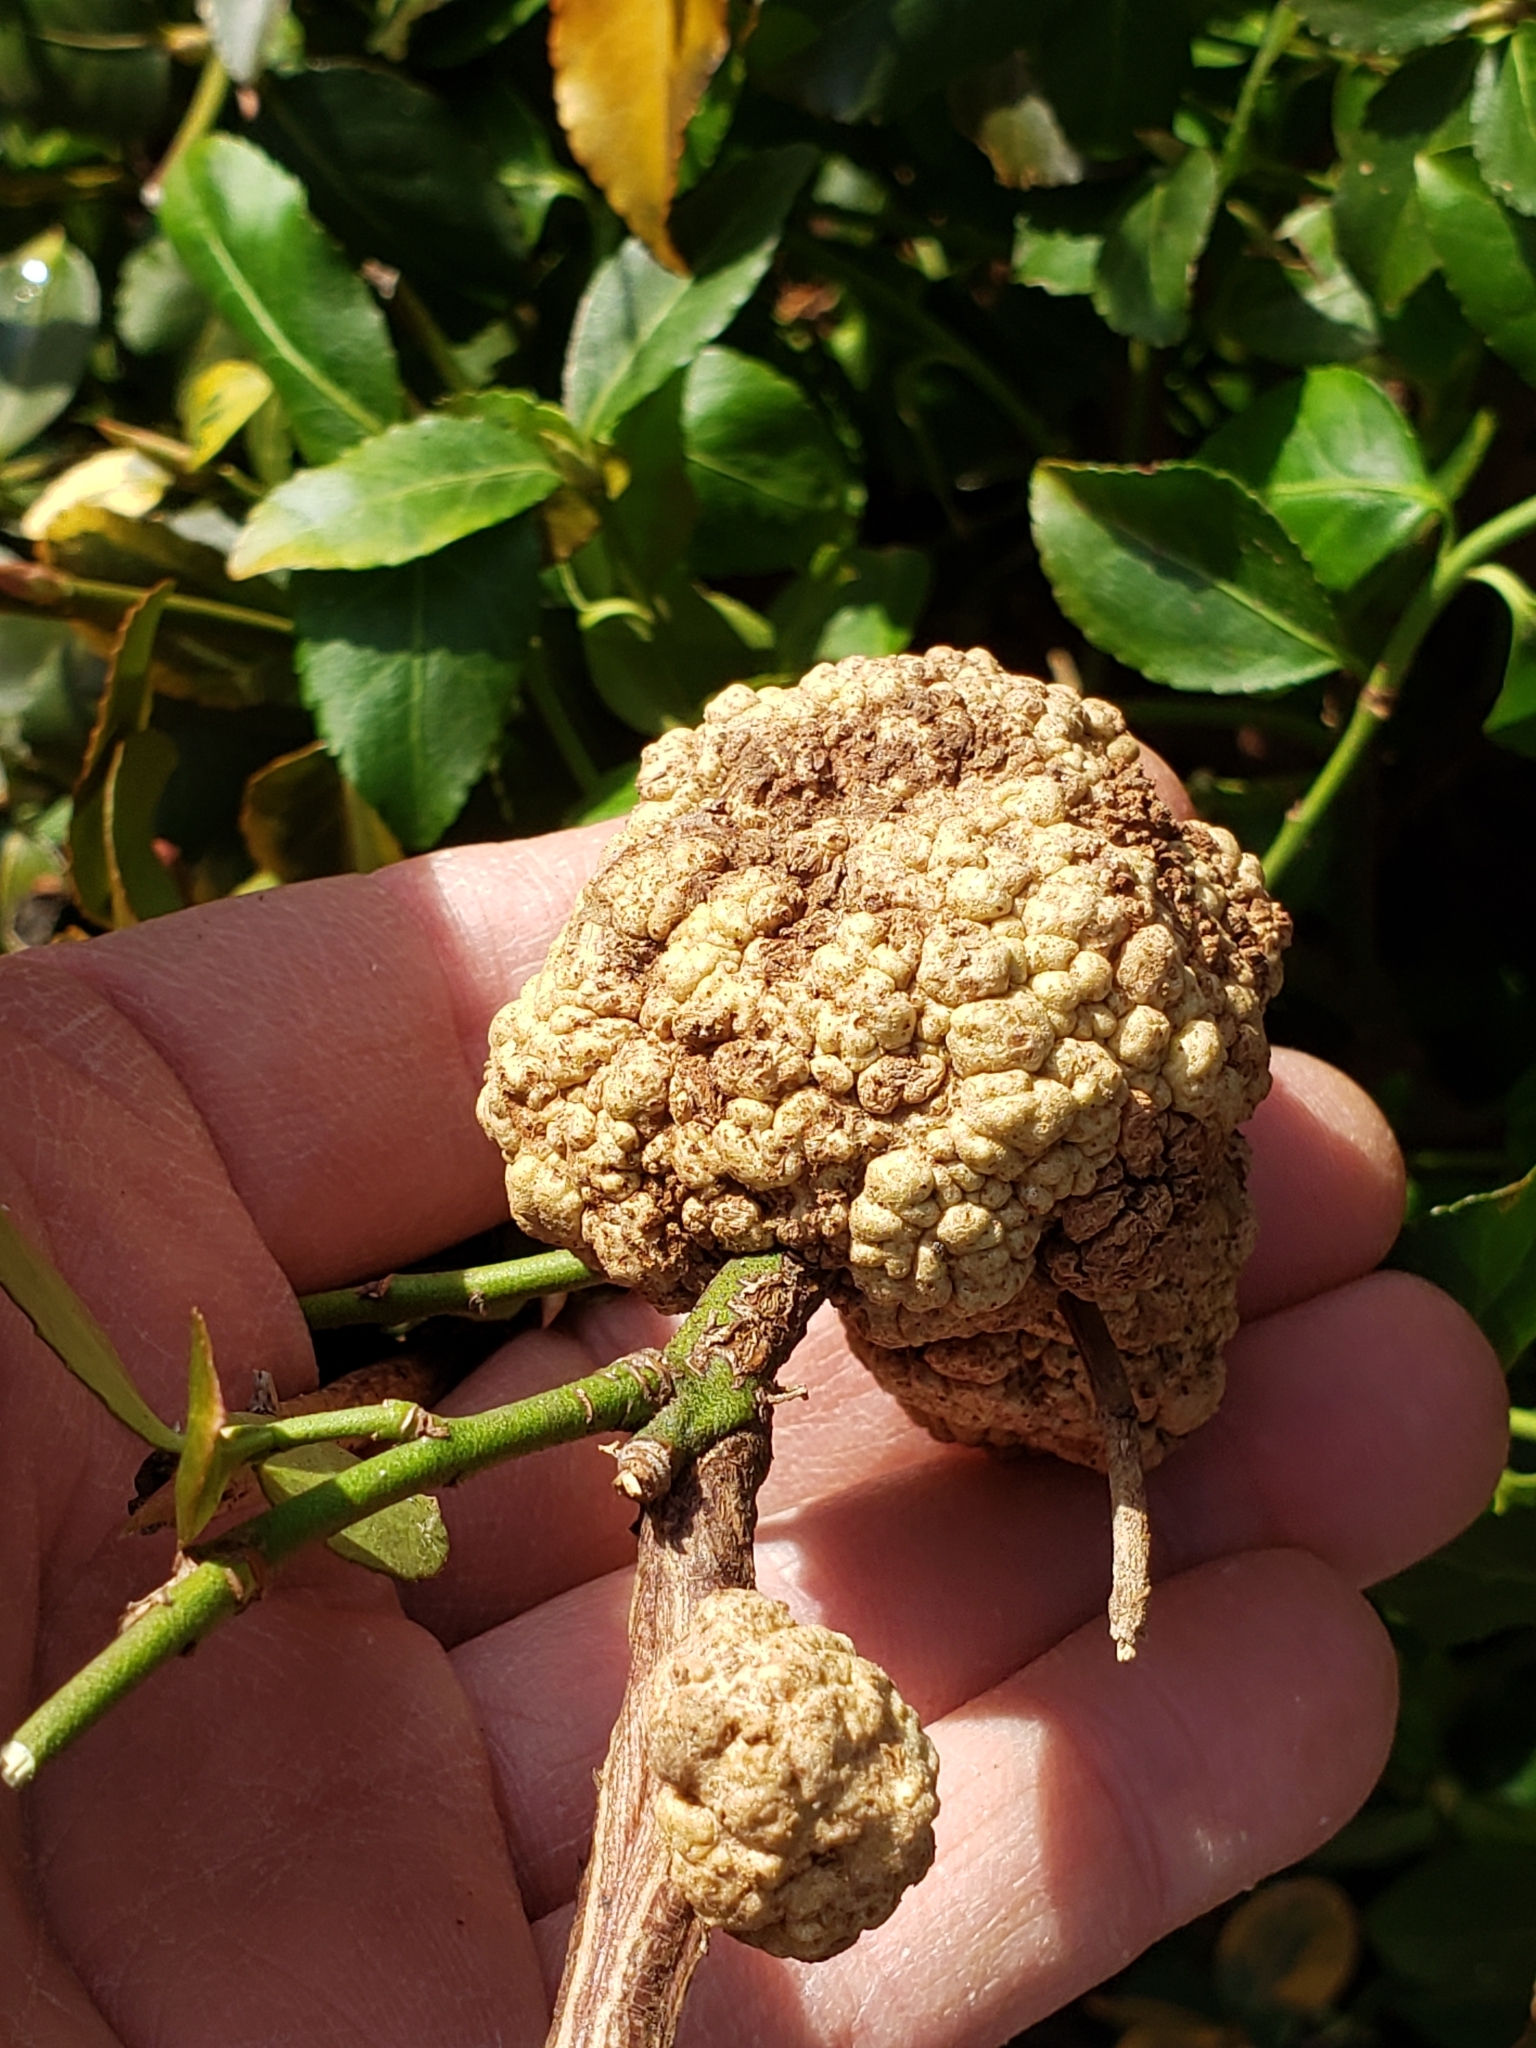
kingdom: Bacteria
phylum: Proteobacteria
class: Alphaproteobacteria
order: Rhizobiales
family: Rhizobiaceae
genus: Rhizobium
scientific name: Rhizobium Agrobacterium radiobacter
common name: Bacterial crown gall
